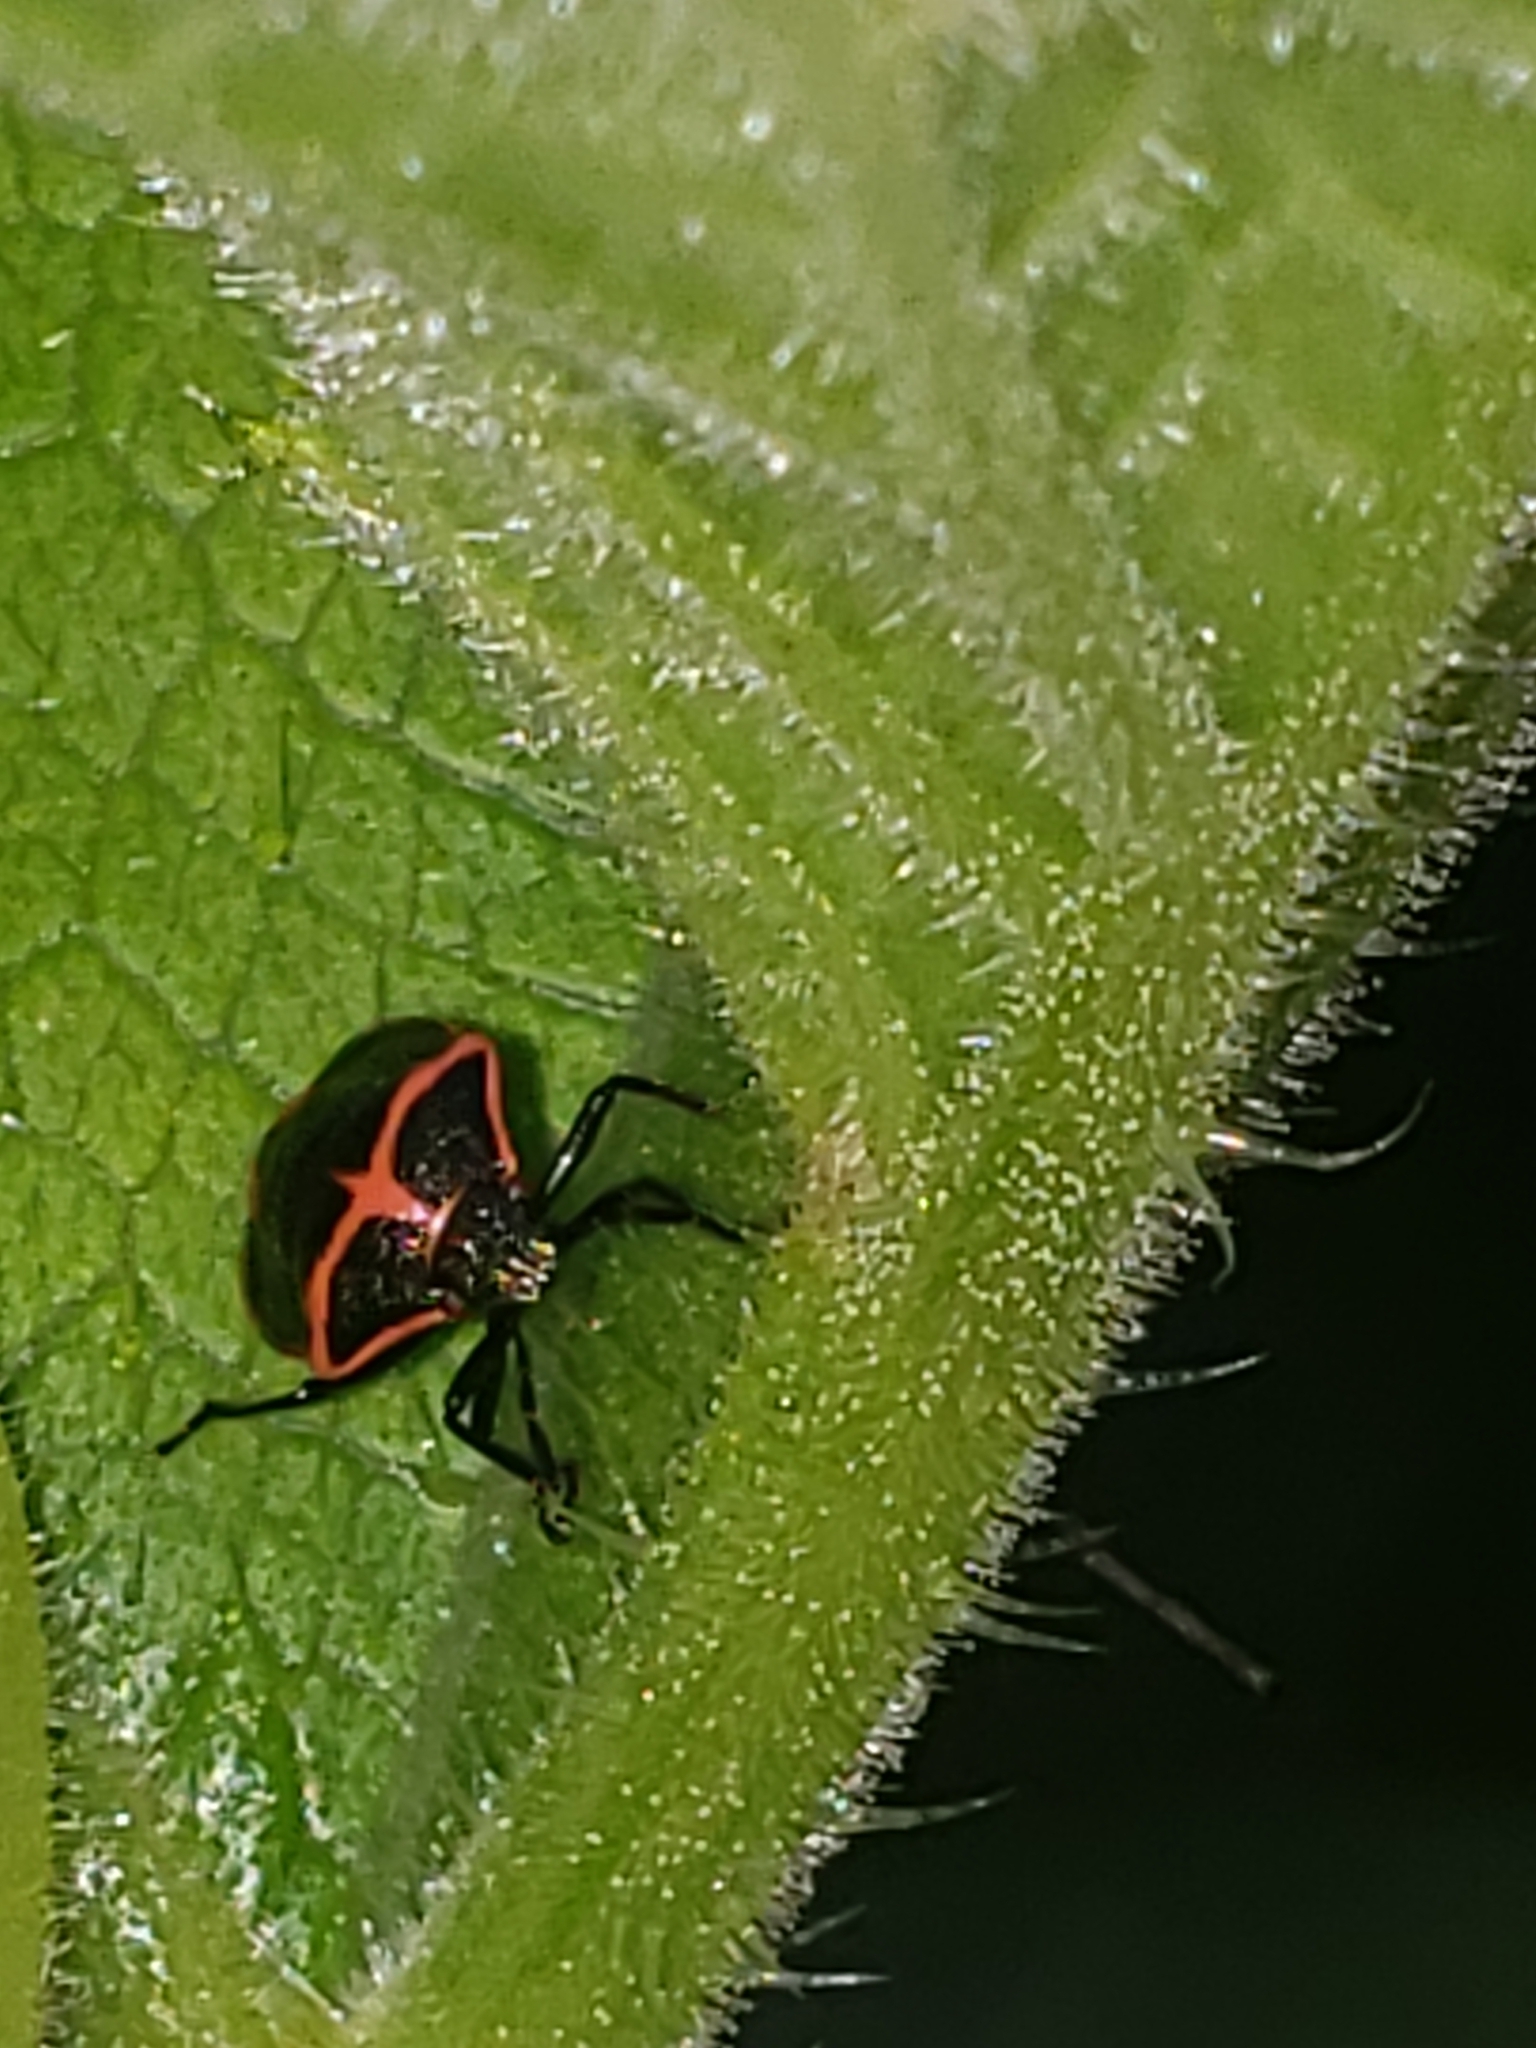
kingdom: Animalia
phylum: Arthropoda
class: Insecta
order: Hemiptera
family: Pentatomidae
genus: Cosmopepla
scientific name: Cosmopepla lintneriana
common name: Twice-stabbed stink bug
